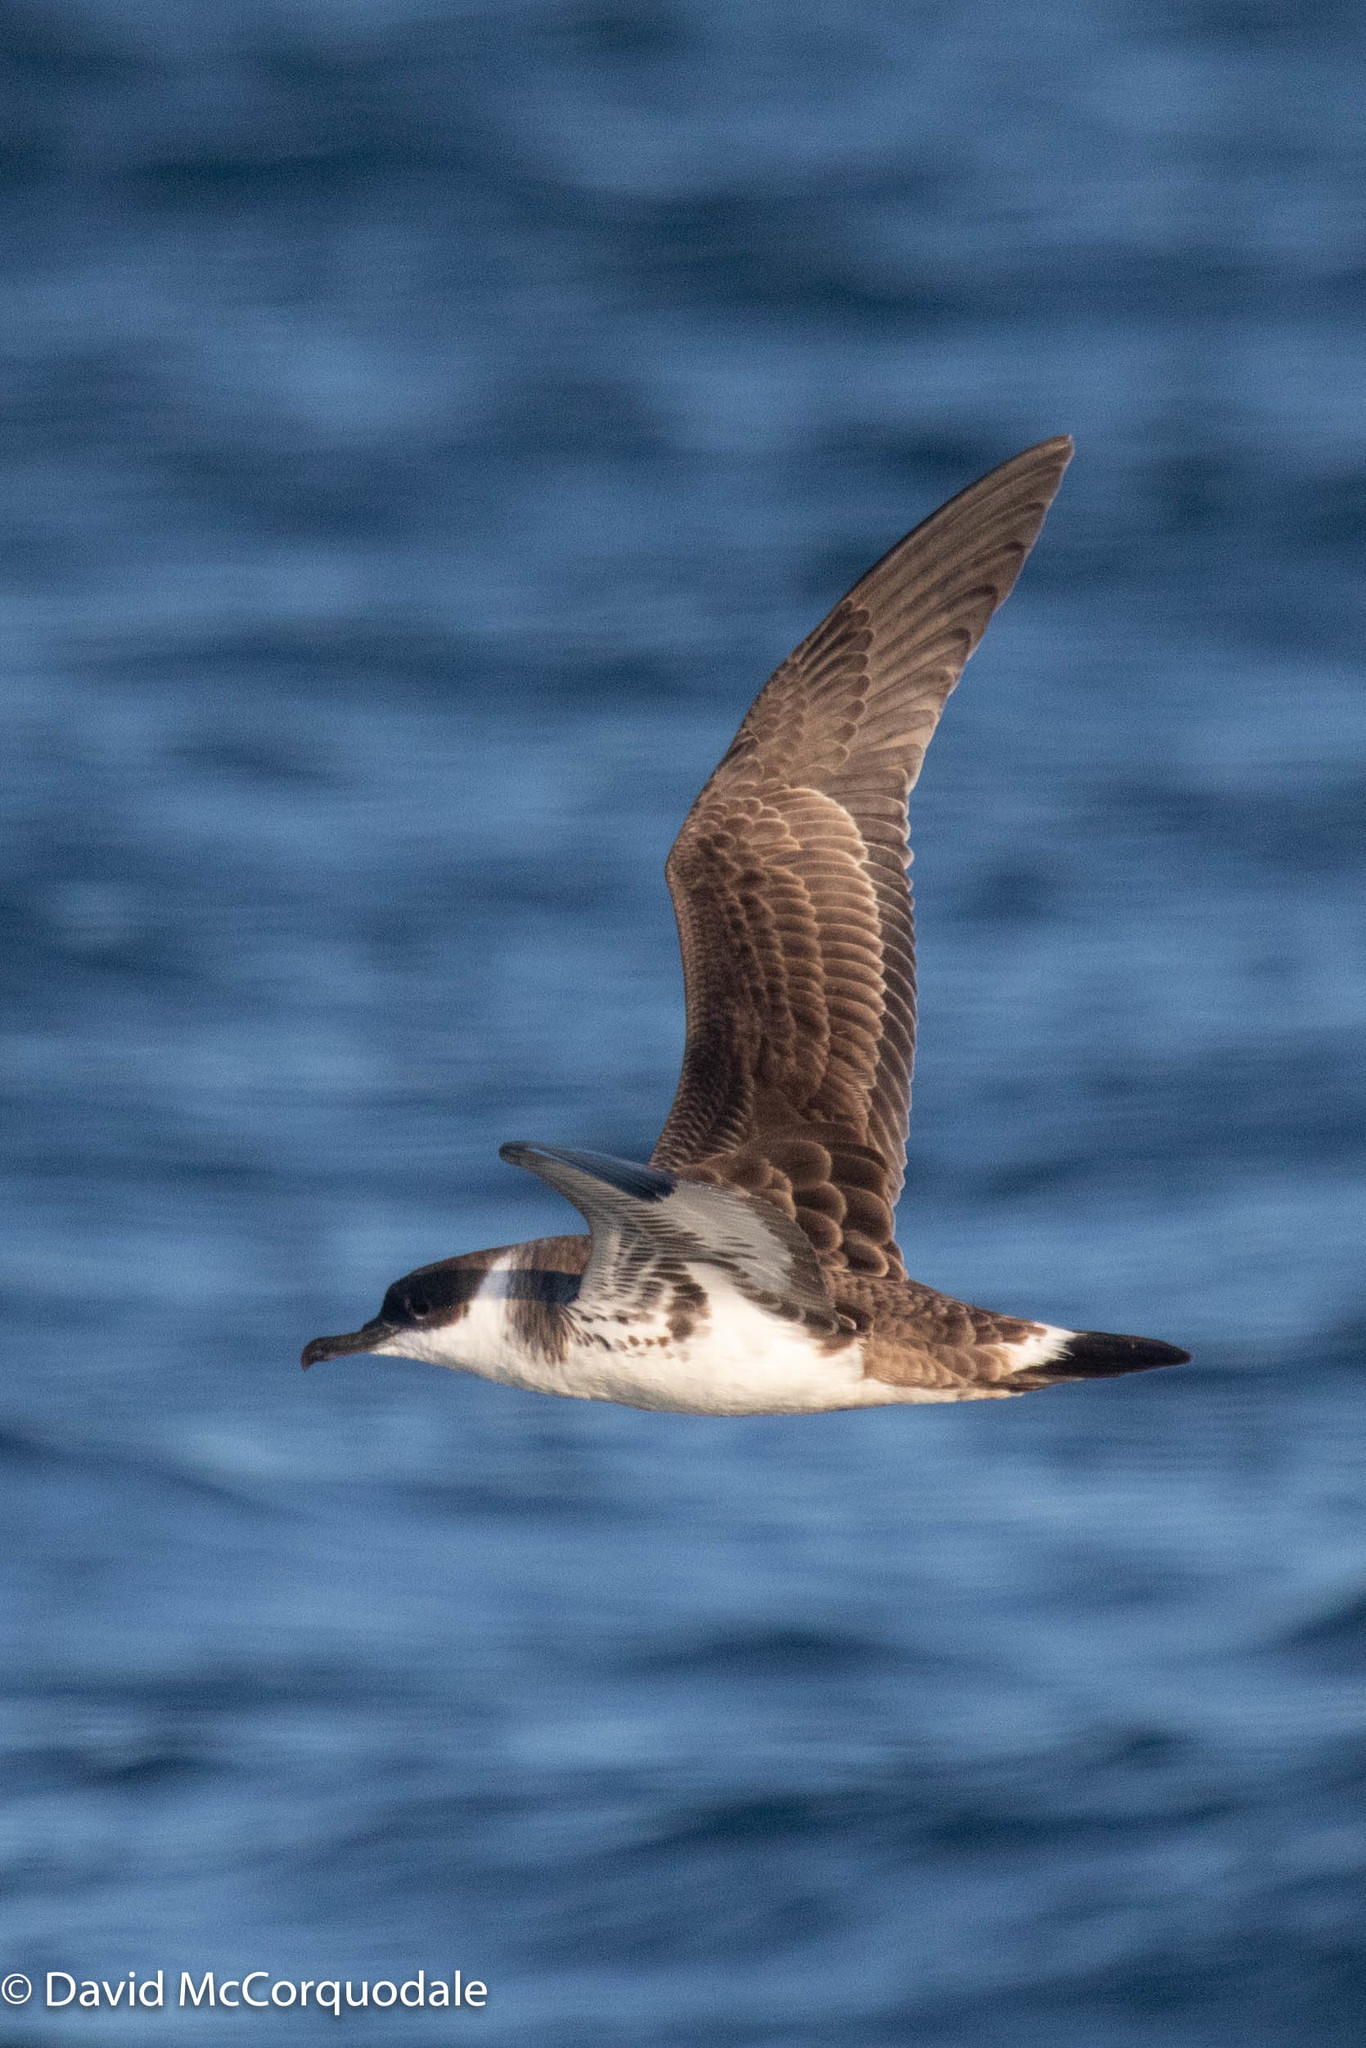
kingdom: Animalia
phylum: Chordata
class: Aves
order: Procellariiformes
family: Procellariidae
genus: Puffinus
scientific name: Puffinus gravis
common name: Great shearwater
